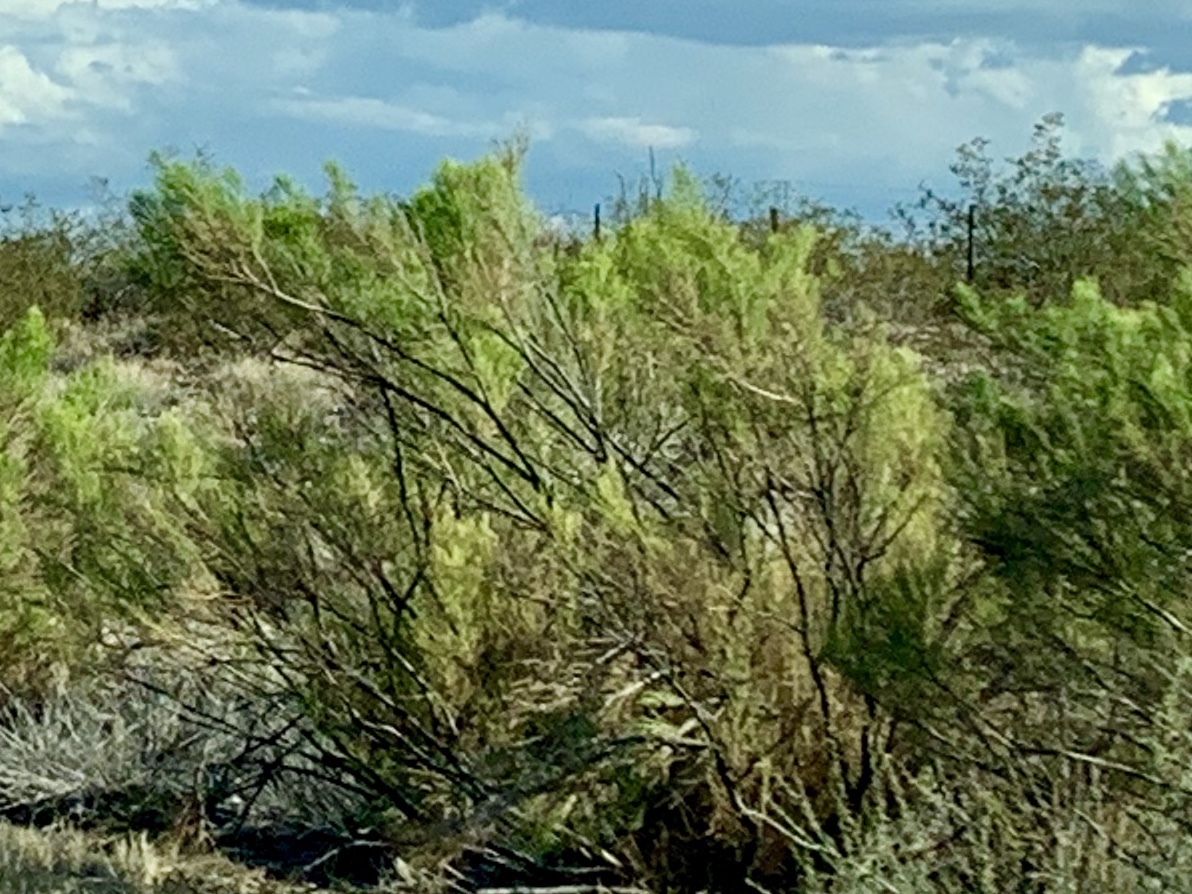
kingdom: Plantae
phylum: Tracheophyta
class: Magnoliopsida
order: Asterales
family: Asteraceae
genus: Baccharis
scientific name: Baccharis sarothroides
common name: Desert-broom
